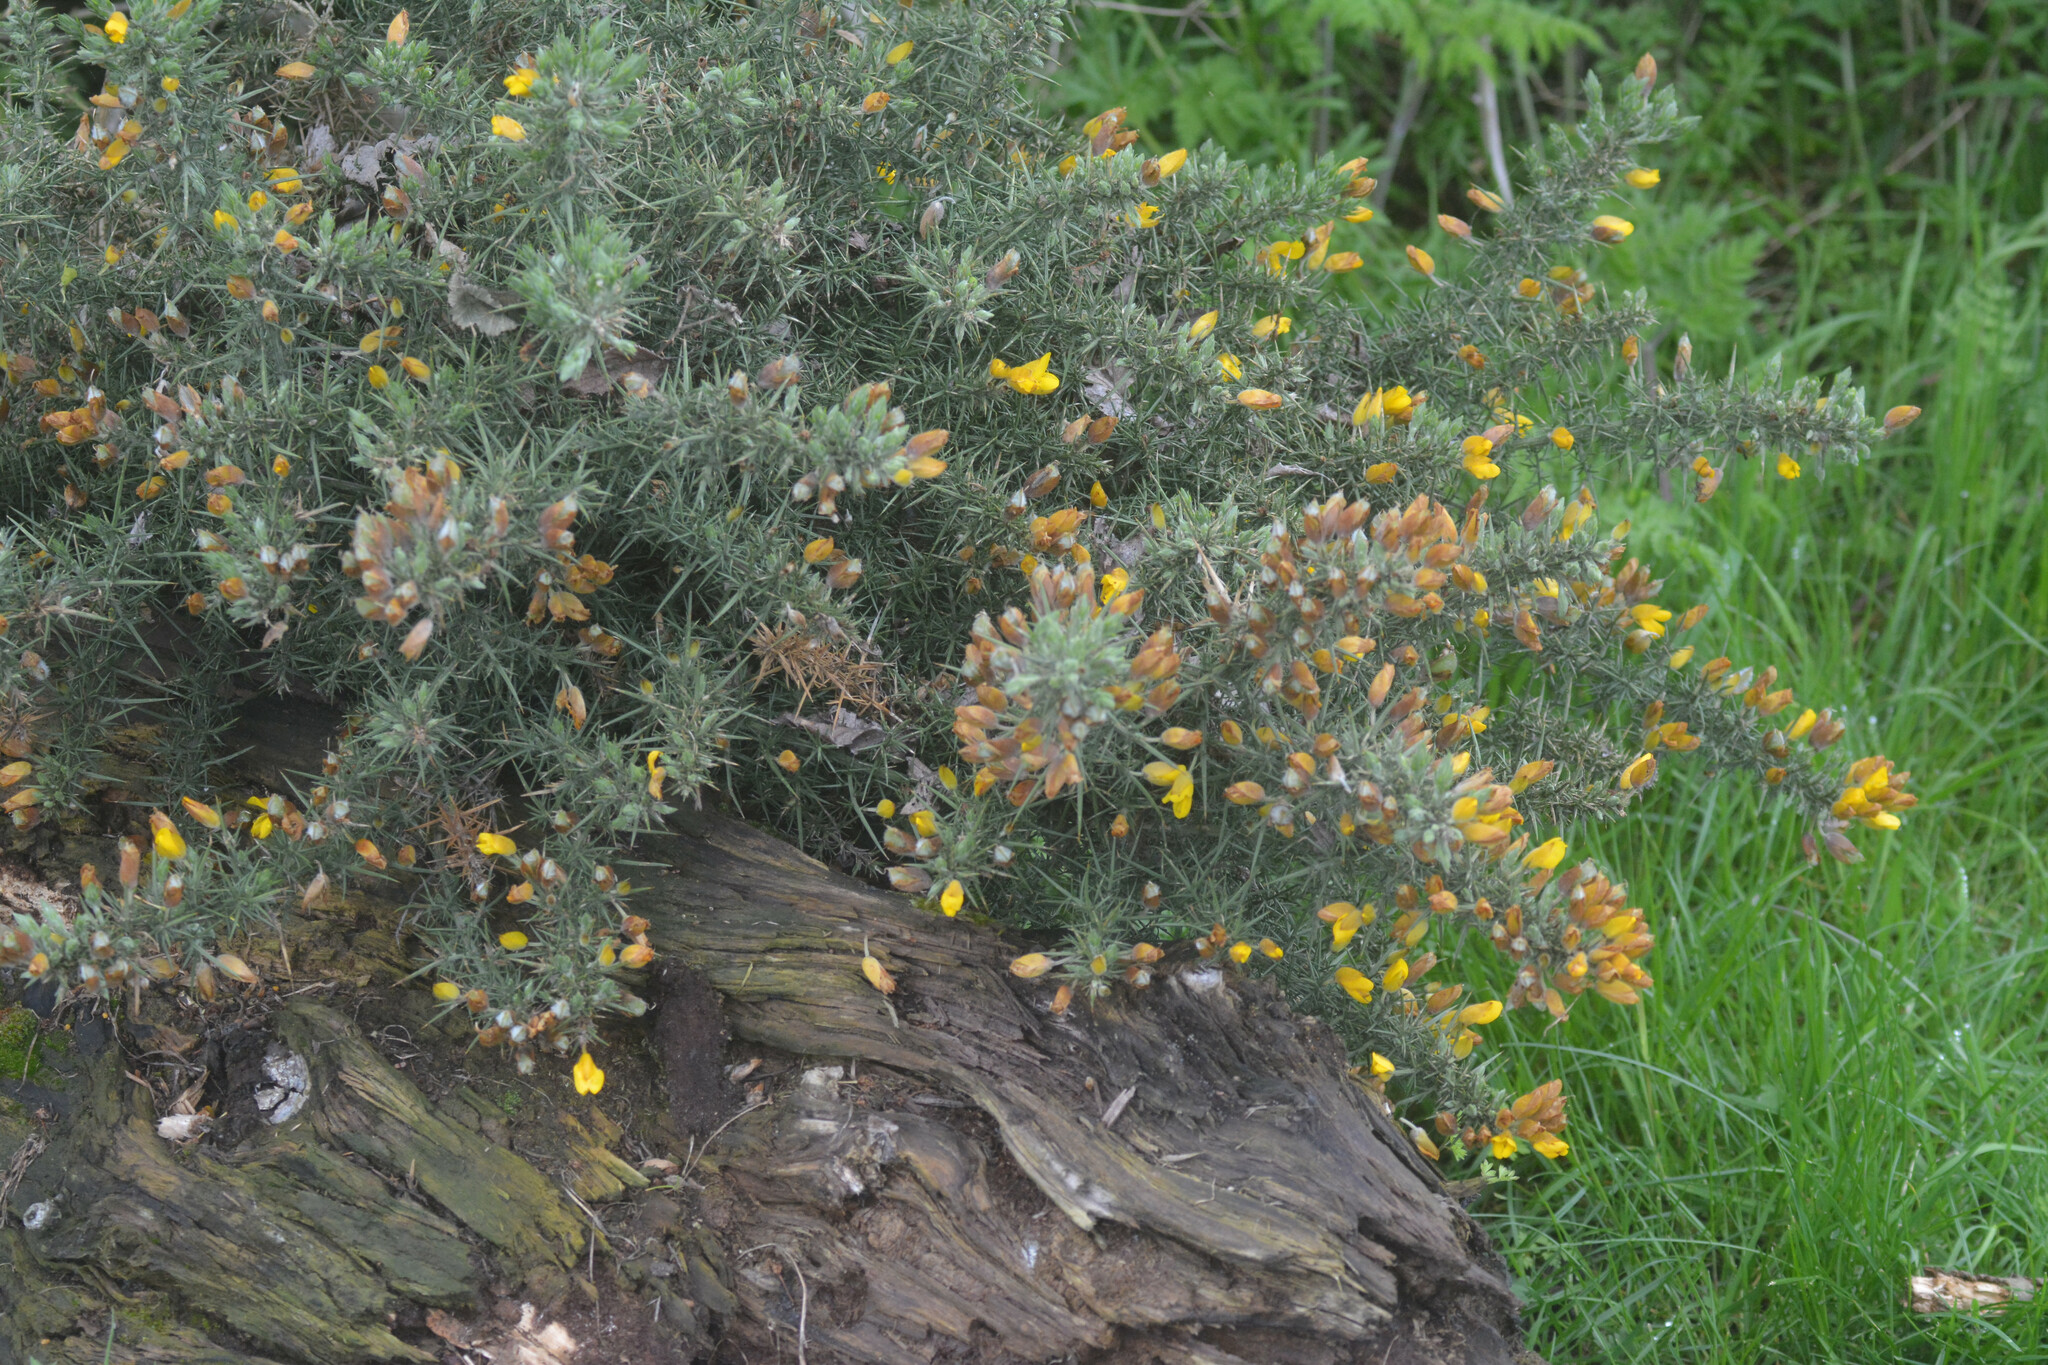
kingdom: Plantae
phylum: Tracheophyta
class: Magnoliopsida
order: Fabales
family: Fabaceae
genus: Ulex
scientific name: Ulex europaeus
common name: Common gorse
